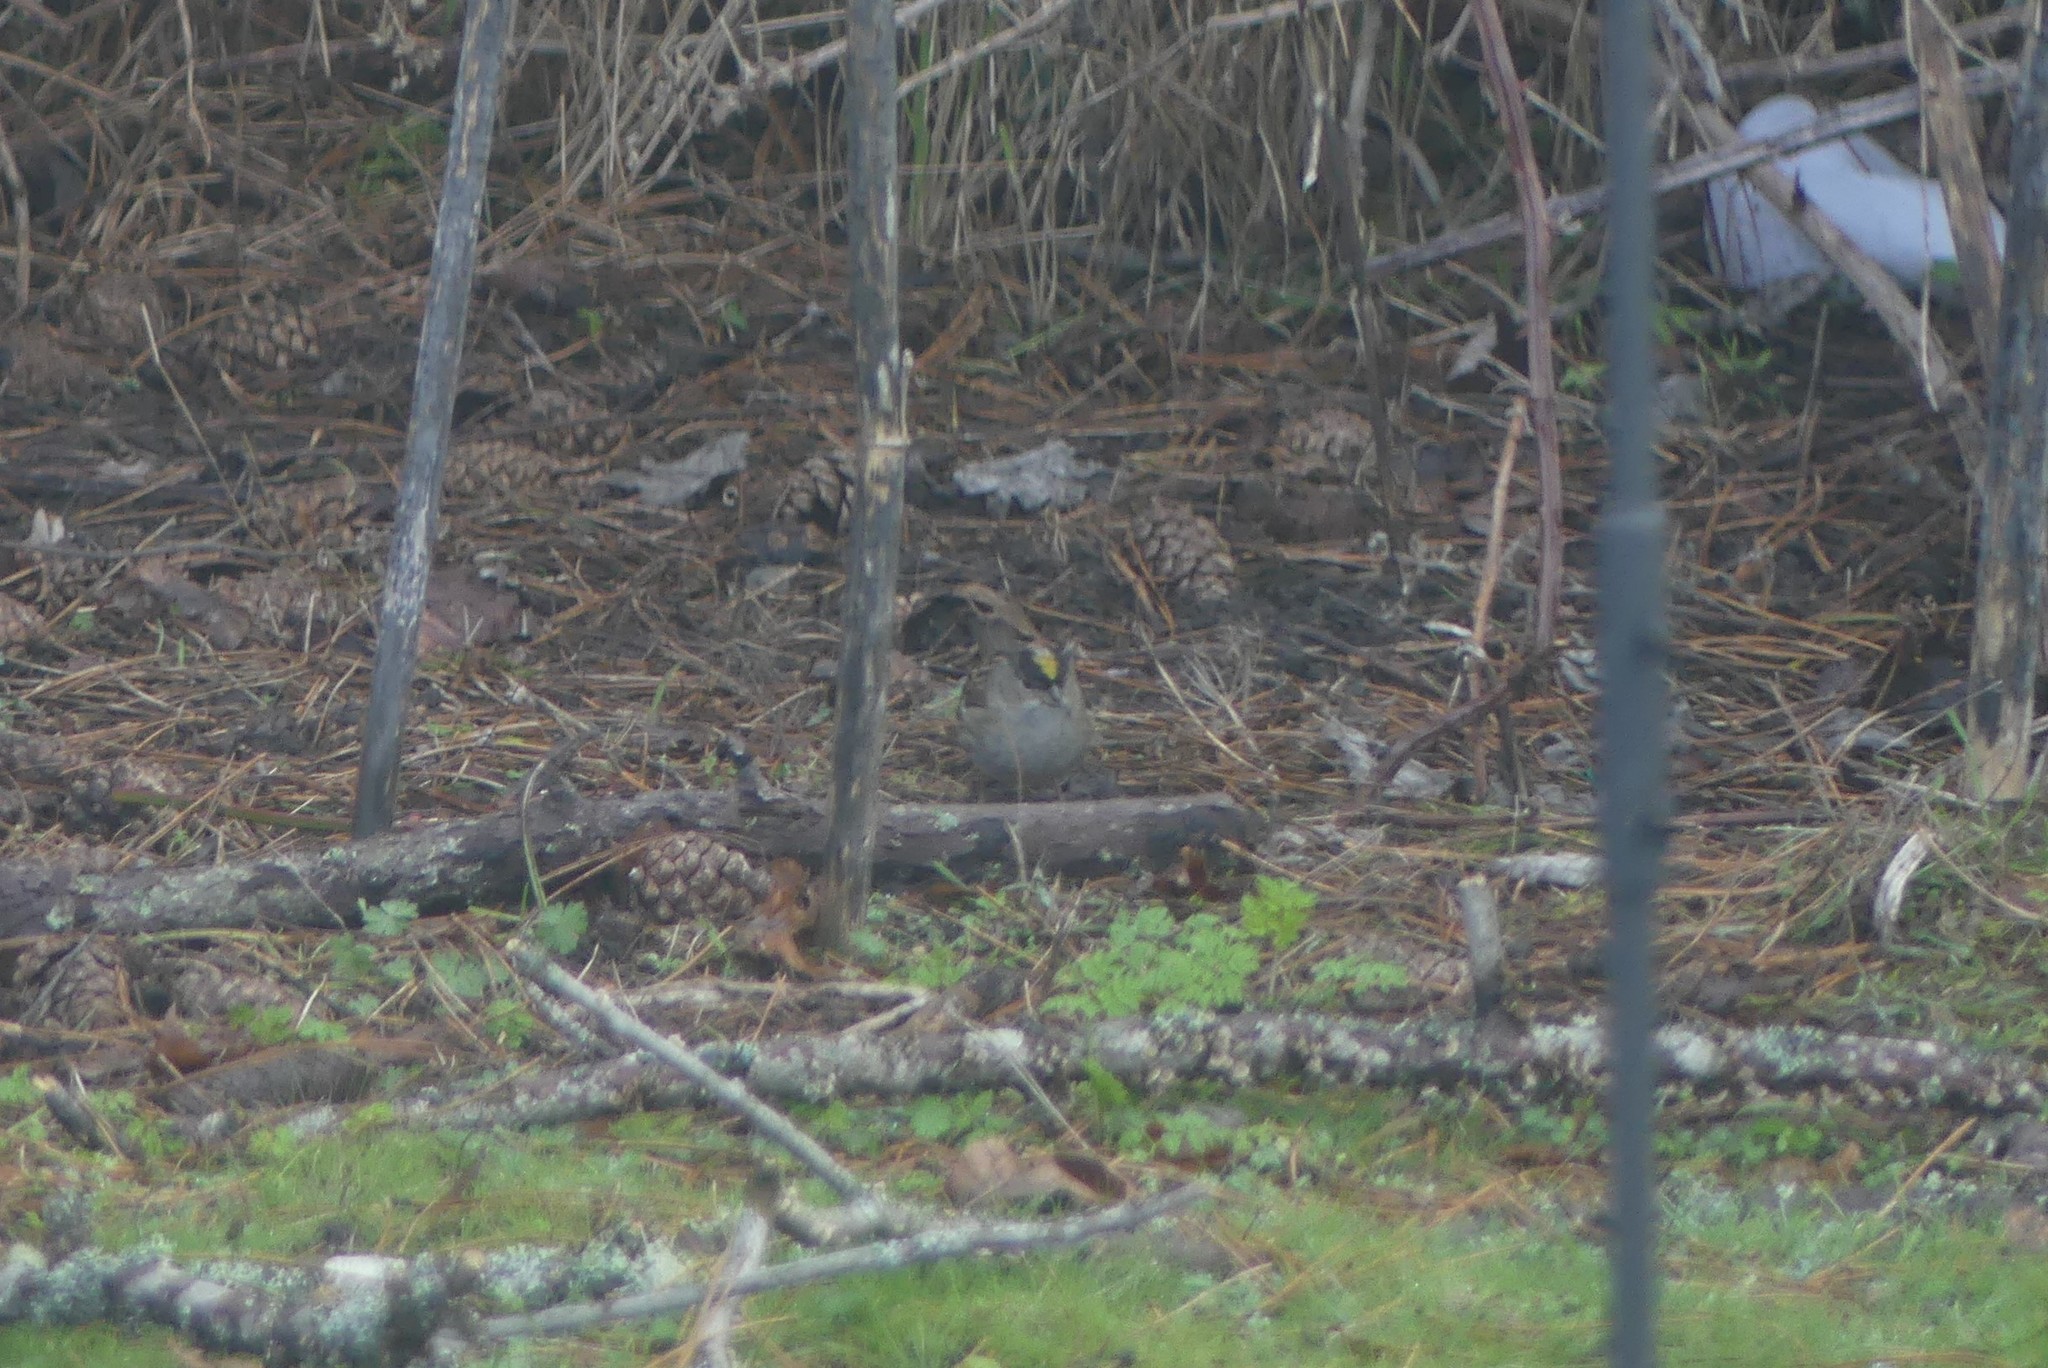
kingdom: Animalia
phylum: Chordata
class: Aves
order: Passeriformes
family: Passerellidae
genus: Zonotrichia
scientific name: Zonotrichia atricapilla
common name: Golden-crowned sparrow
